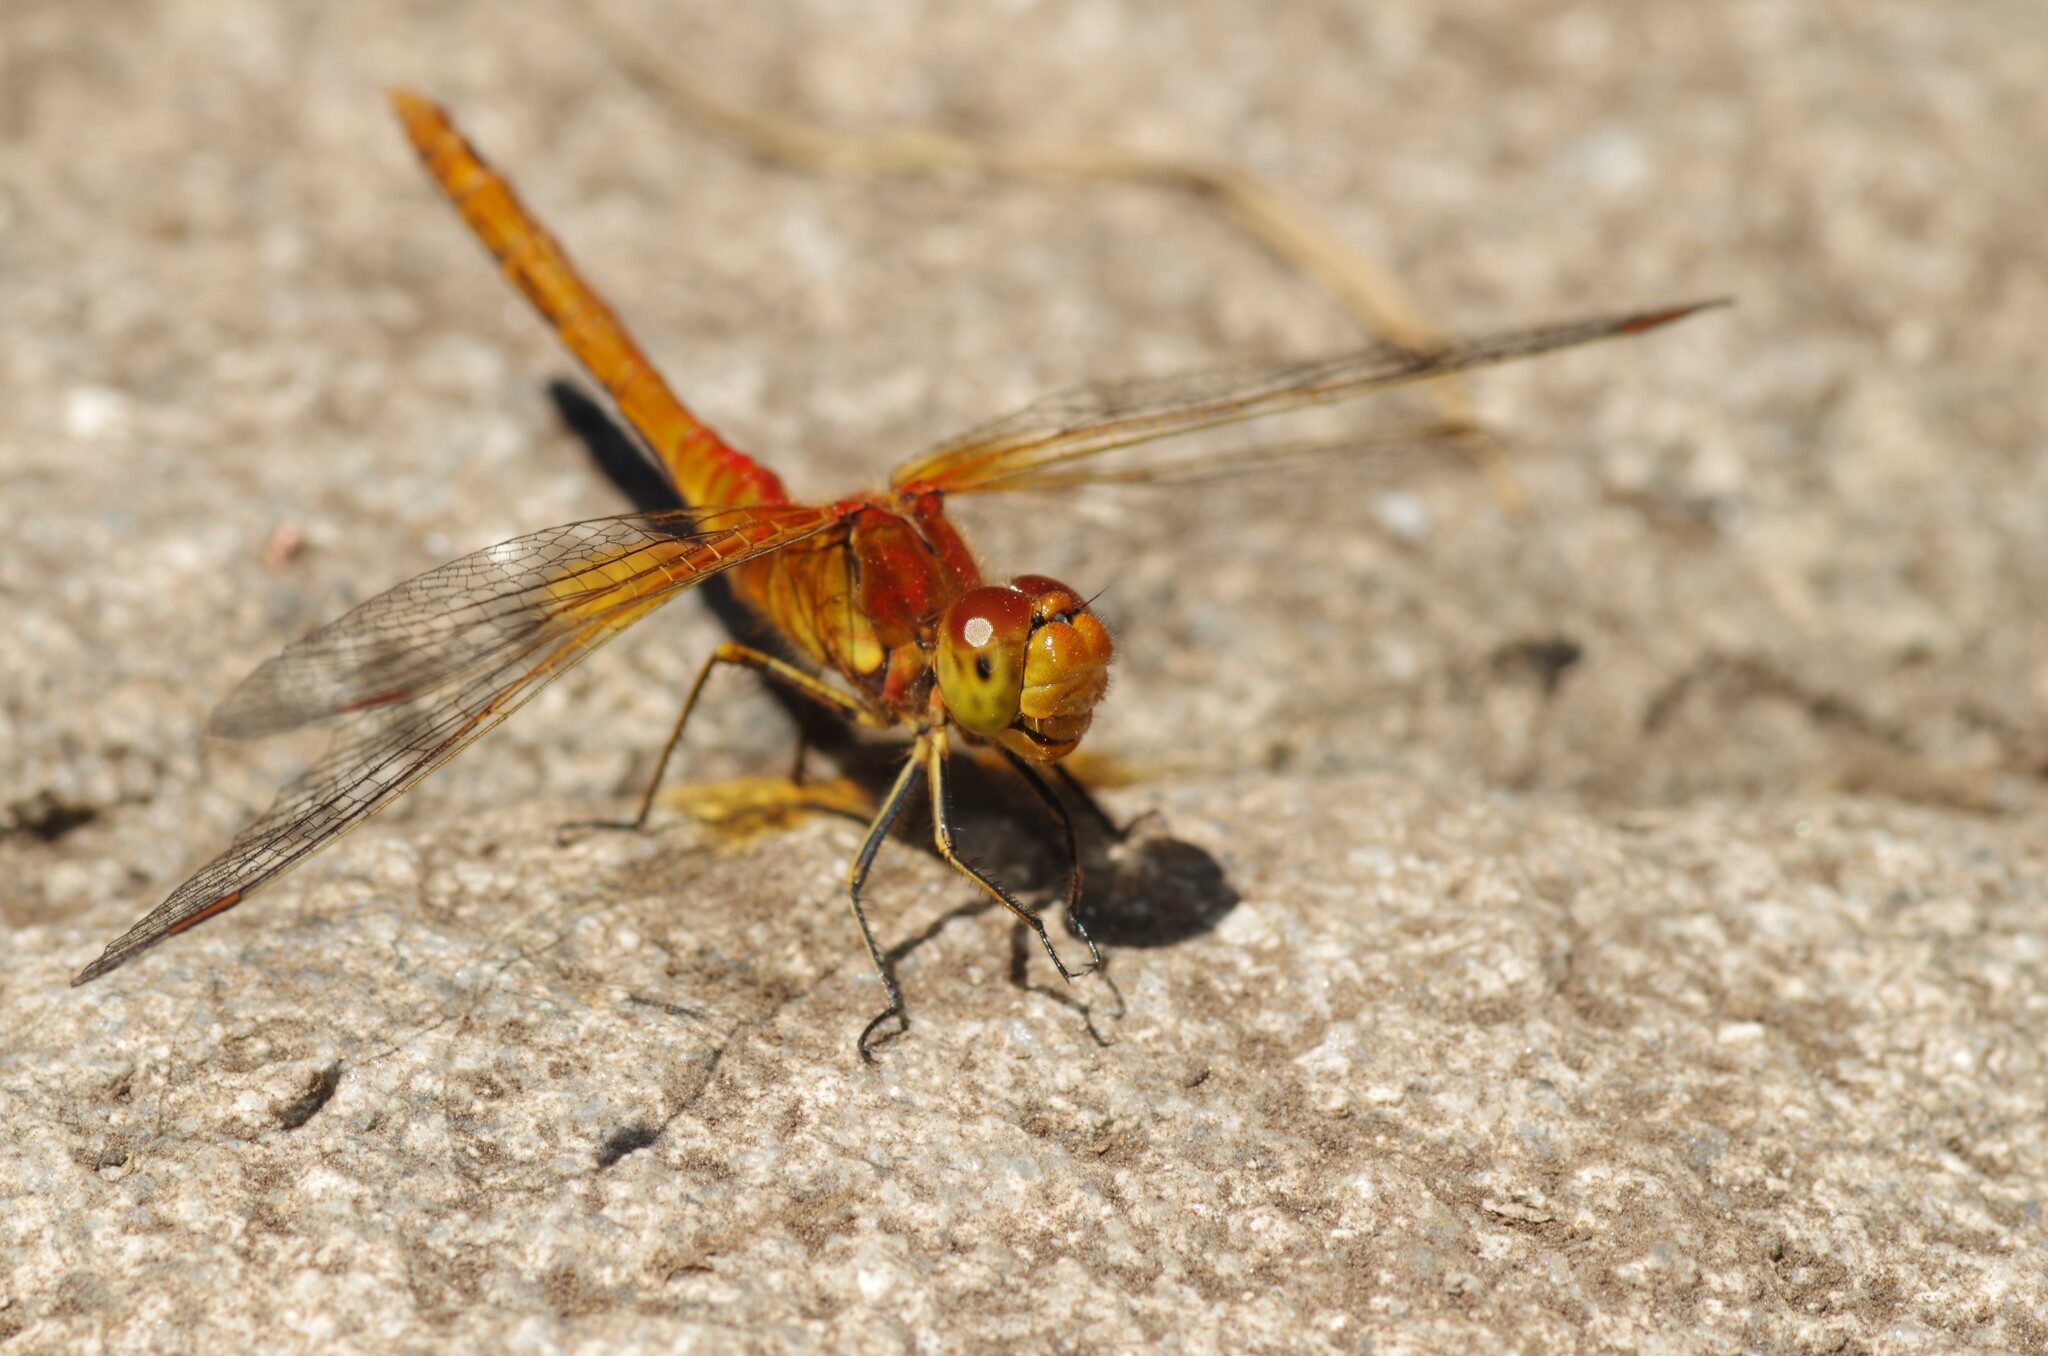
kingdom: Animalia
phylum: Arthropoda
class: Insecta
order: Odonata
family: Libellulidae
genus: Sympetrum
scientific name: Sympetrum flaveolum
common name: Yellow-winged darter
